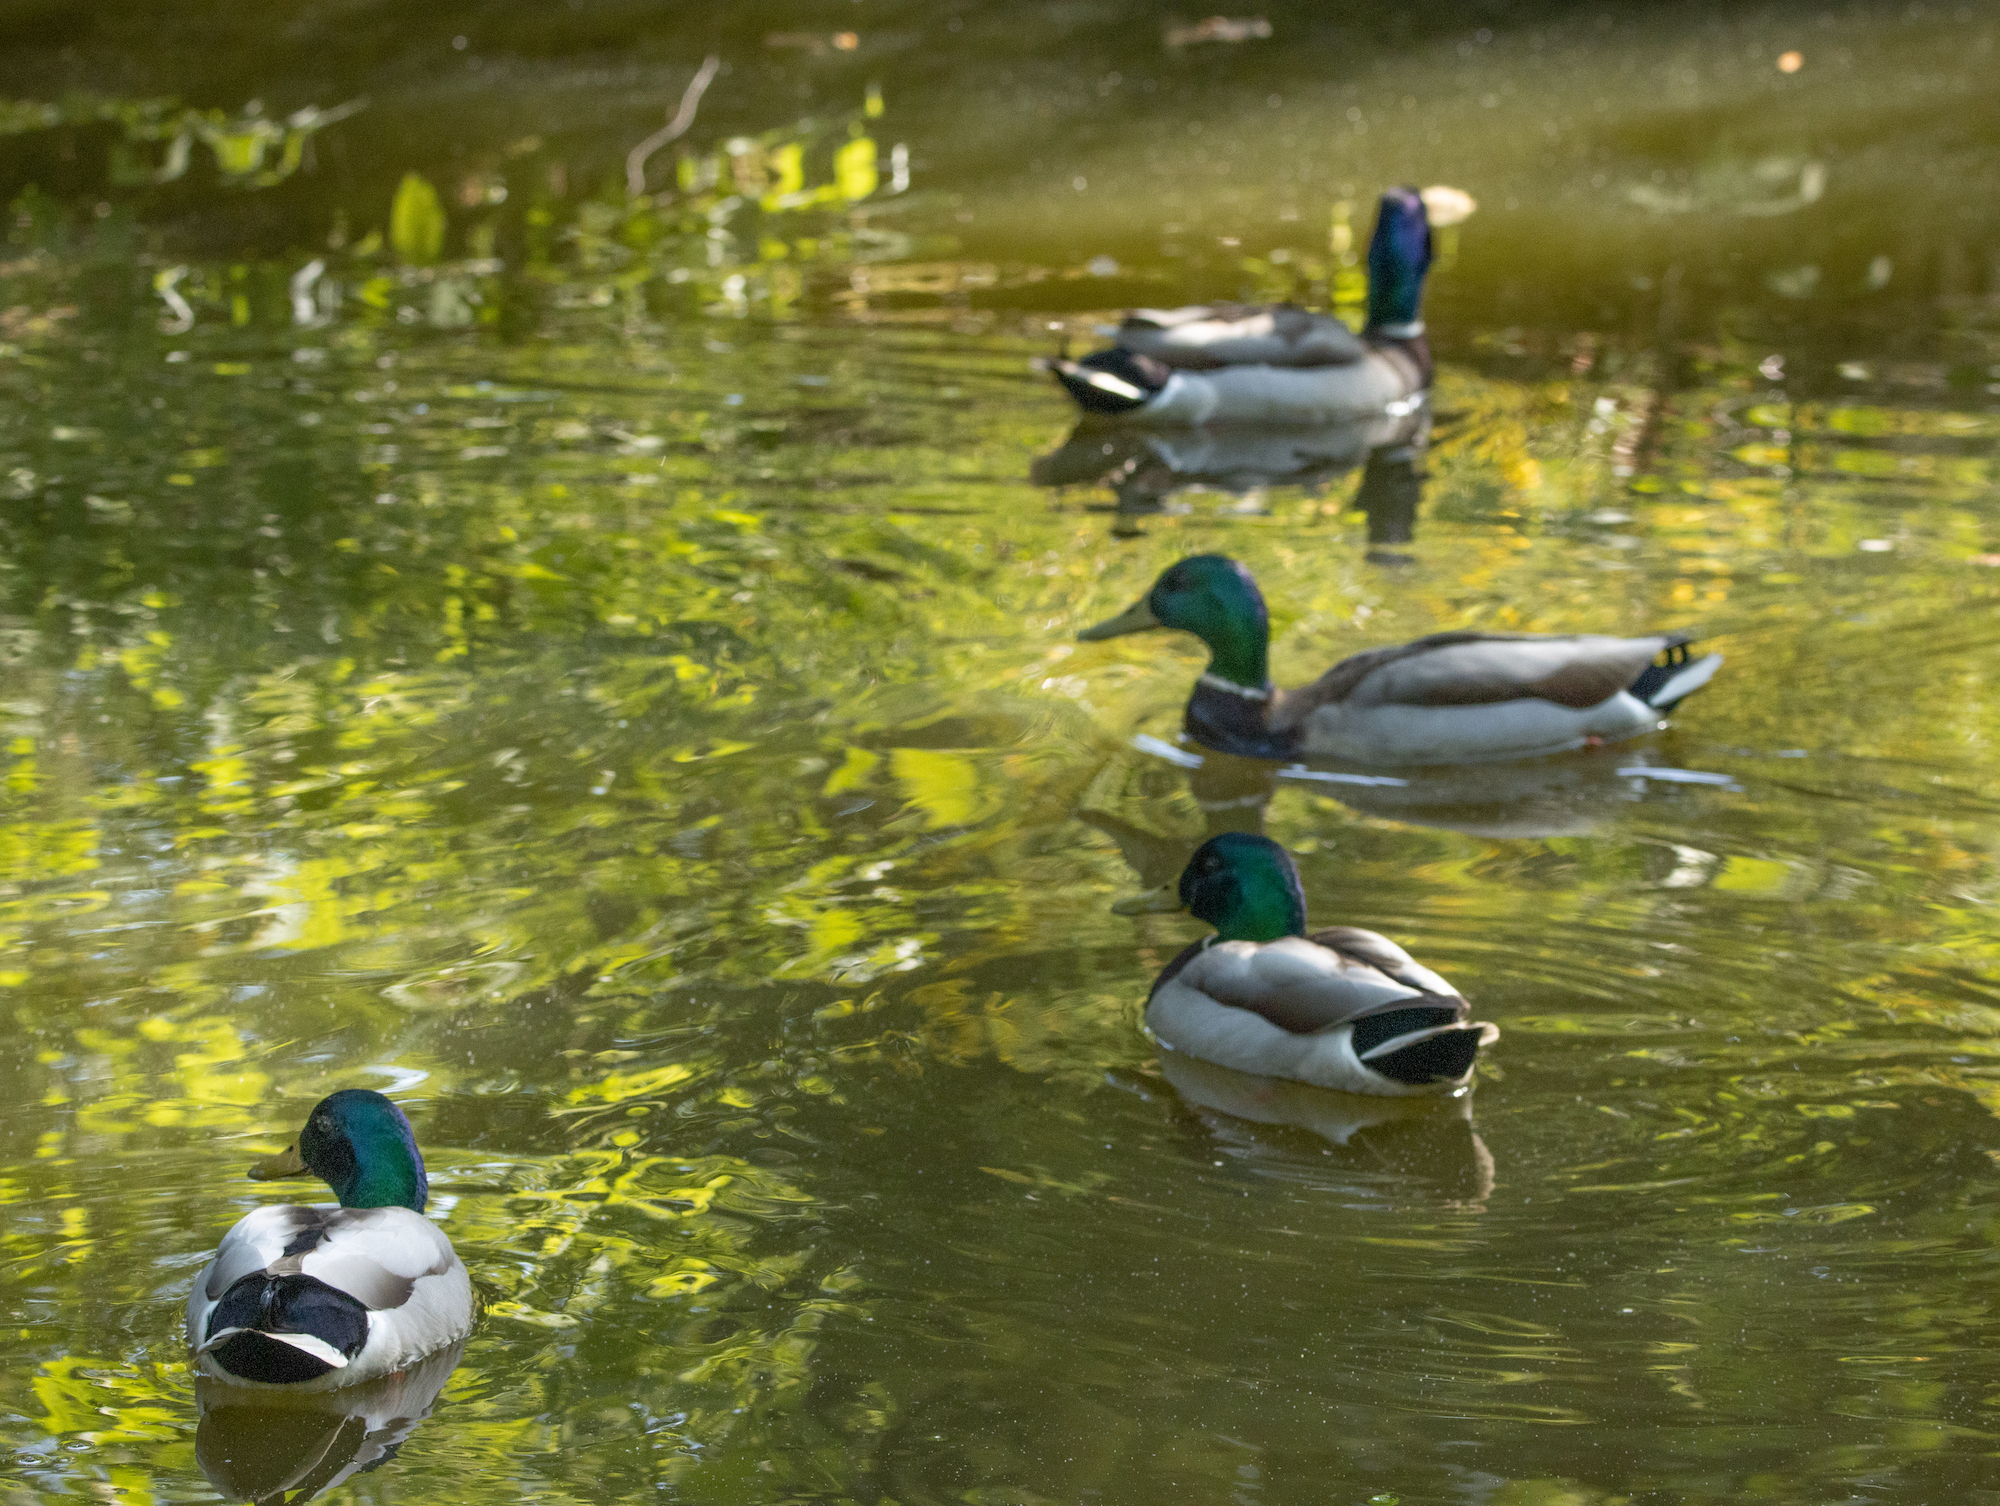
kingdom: Animalia
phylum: Chordata
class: Aves
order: Anseriformes
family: Anatidae
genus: Anas
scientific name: Anas platyrhynchos
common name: Mallard
